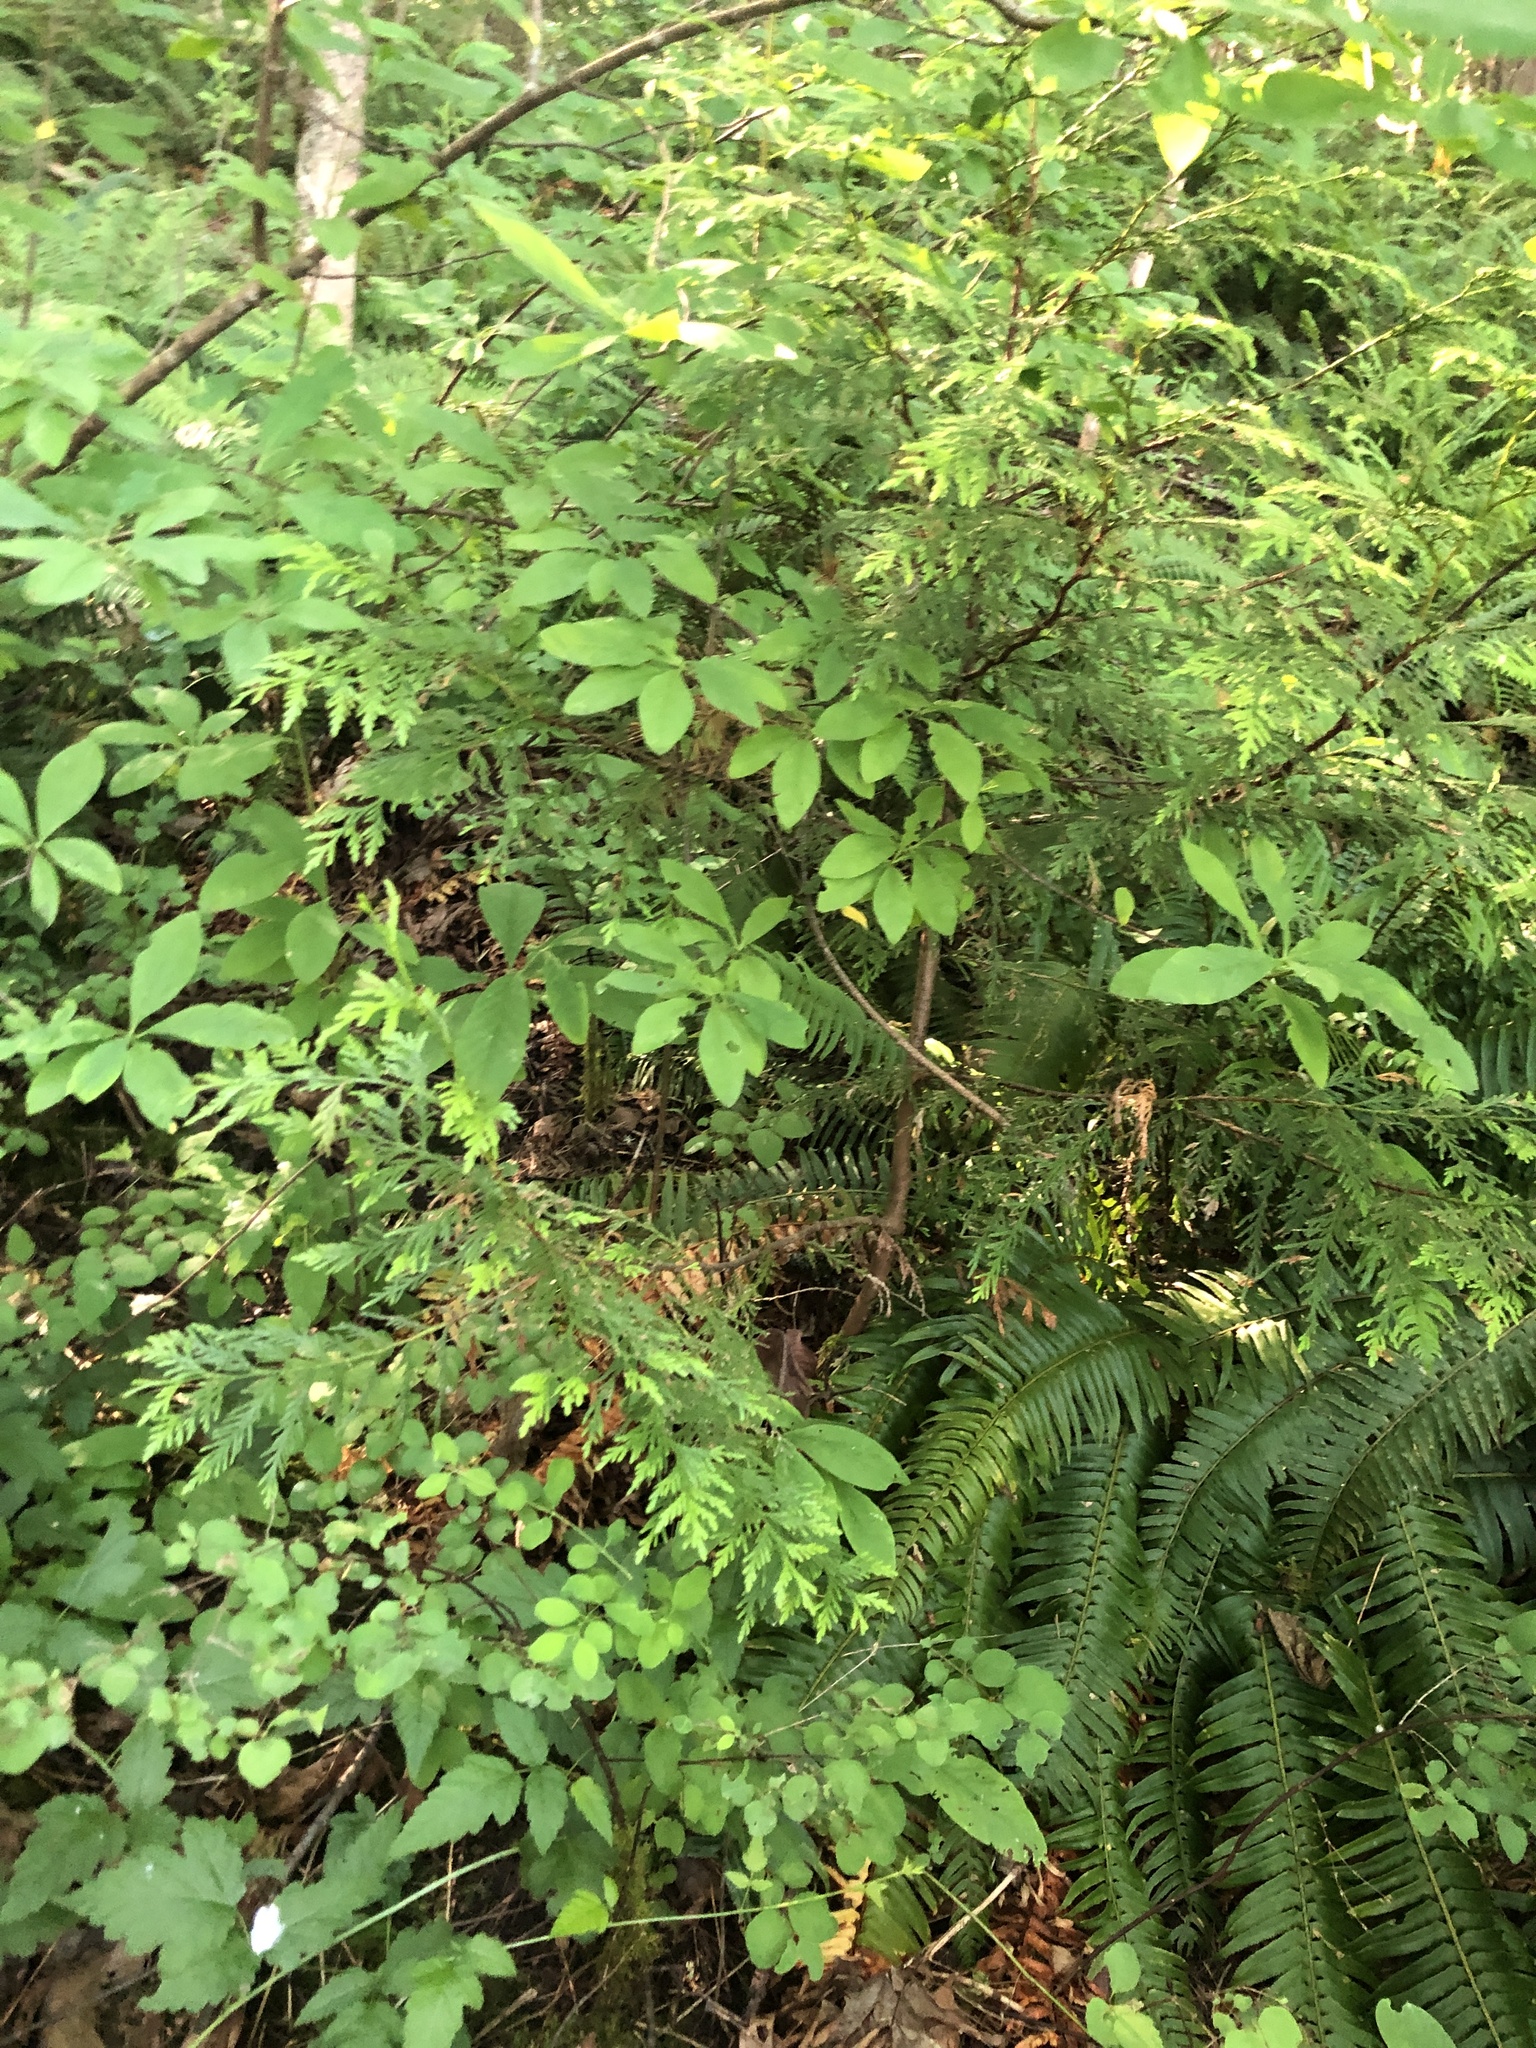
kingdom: Plantae
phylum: Tracheophyta
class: Pinopsida
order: Pinales
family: Cupressaceae
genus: Thuja
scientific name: Thuja plicata
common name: Western red-cedar
